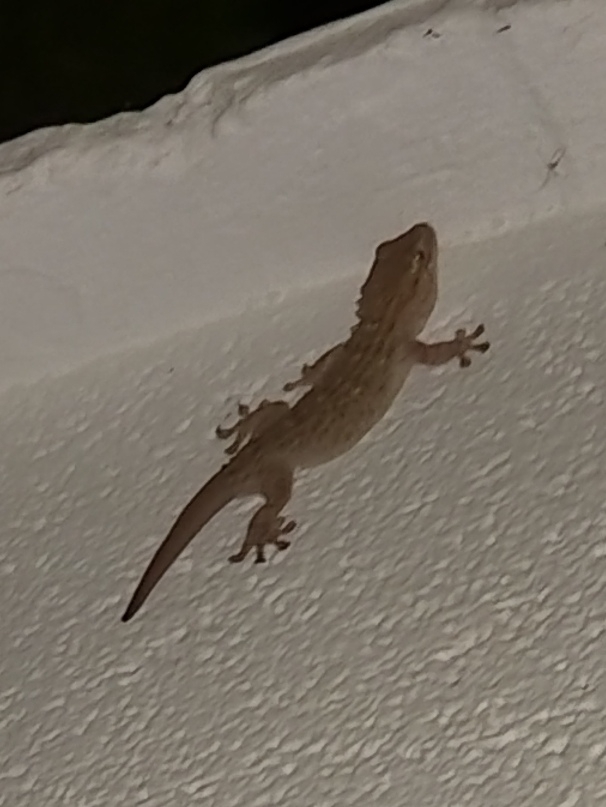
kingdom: Animalia
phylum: Chordata
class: Squamata
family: Phyllodactylidae
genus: Tarentola
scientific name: Tarentola mauritanica
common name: Moorish gecko
